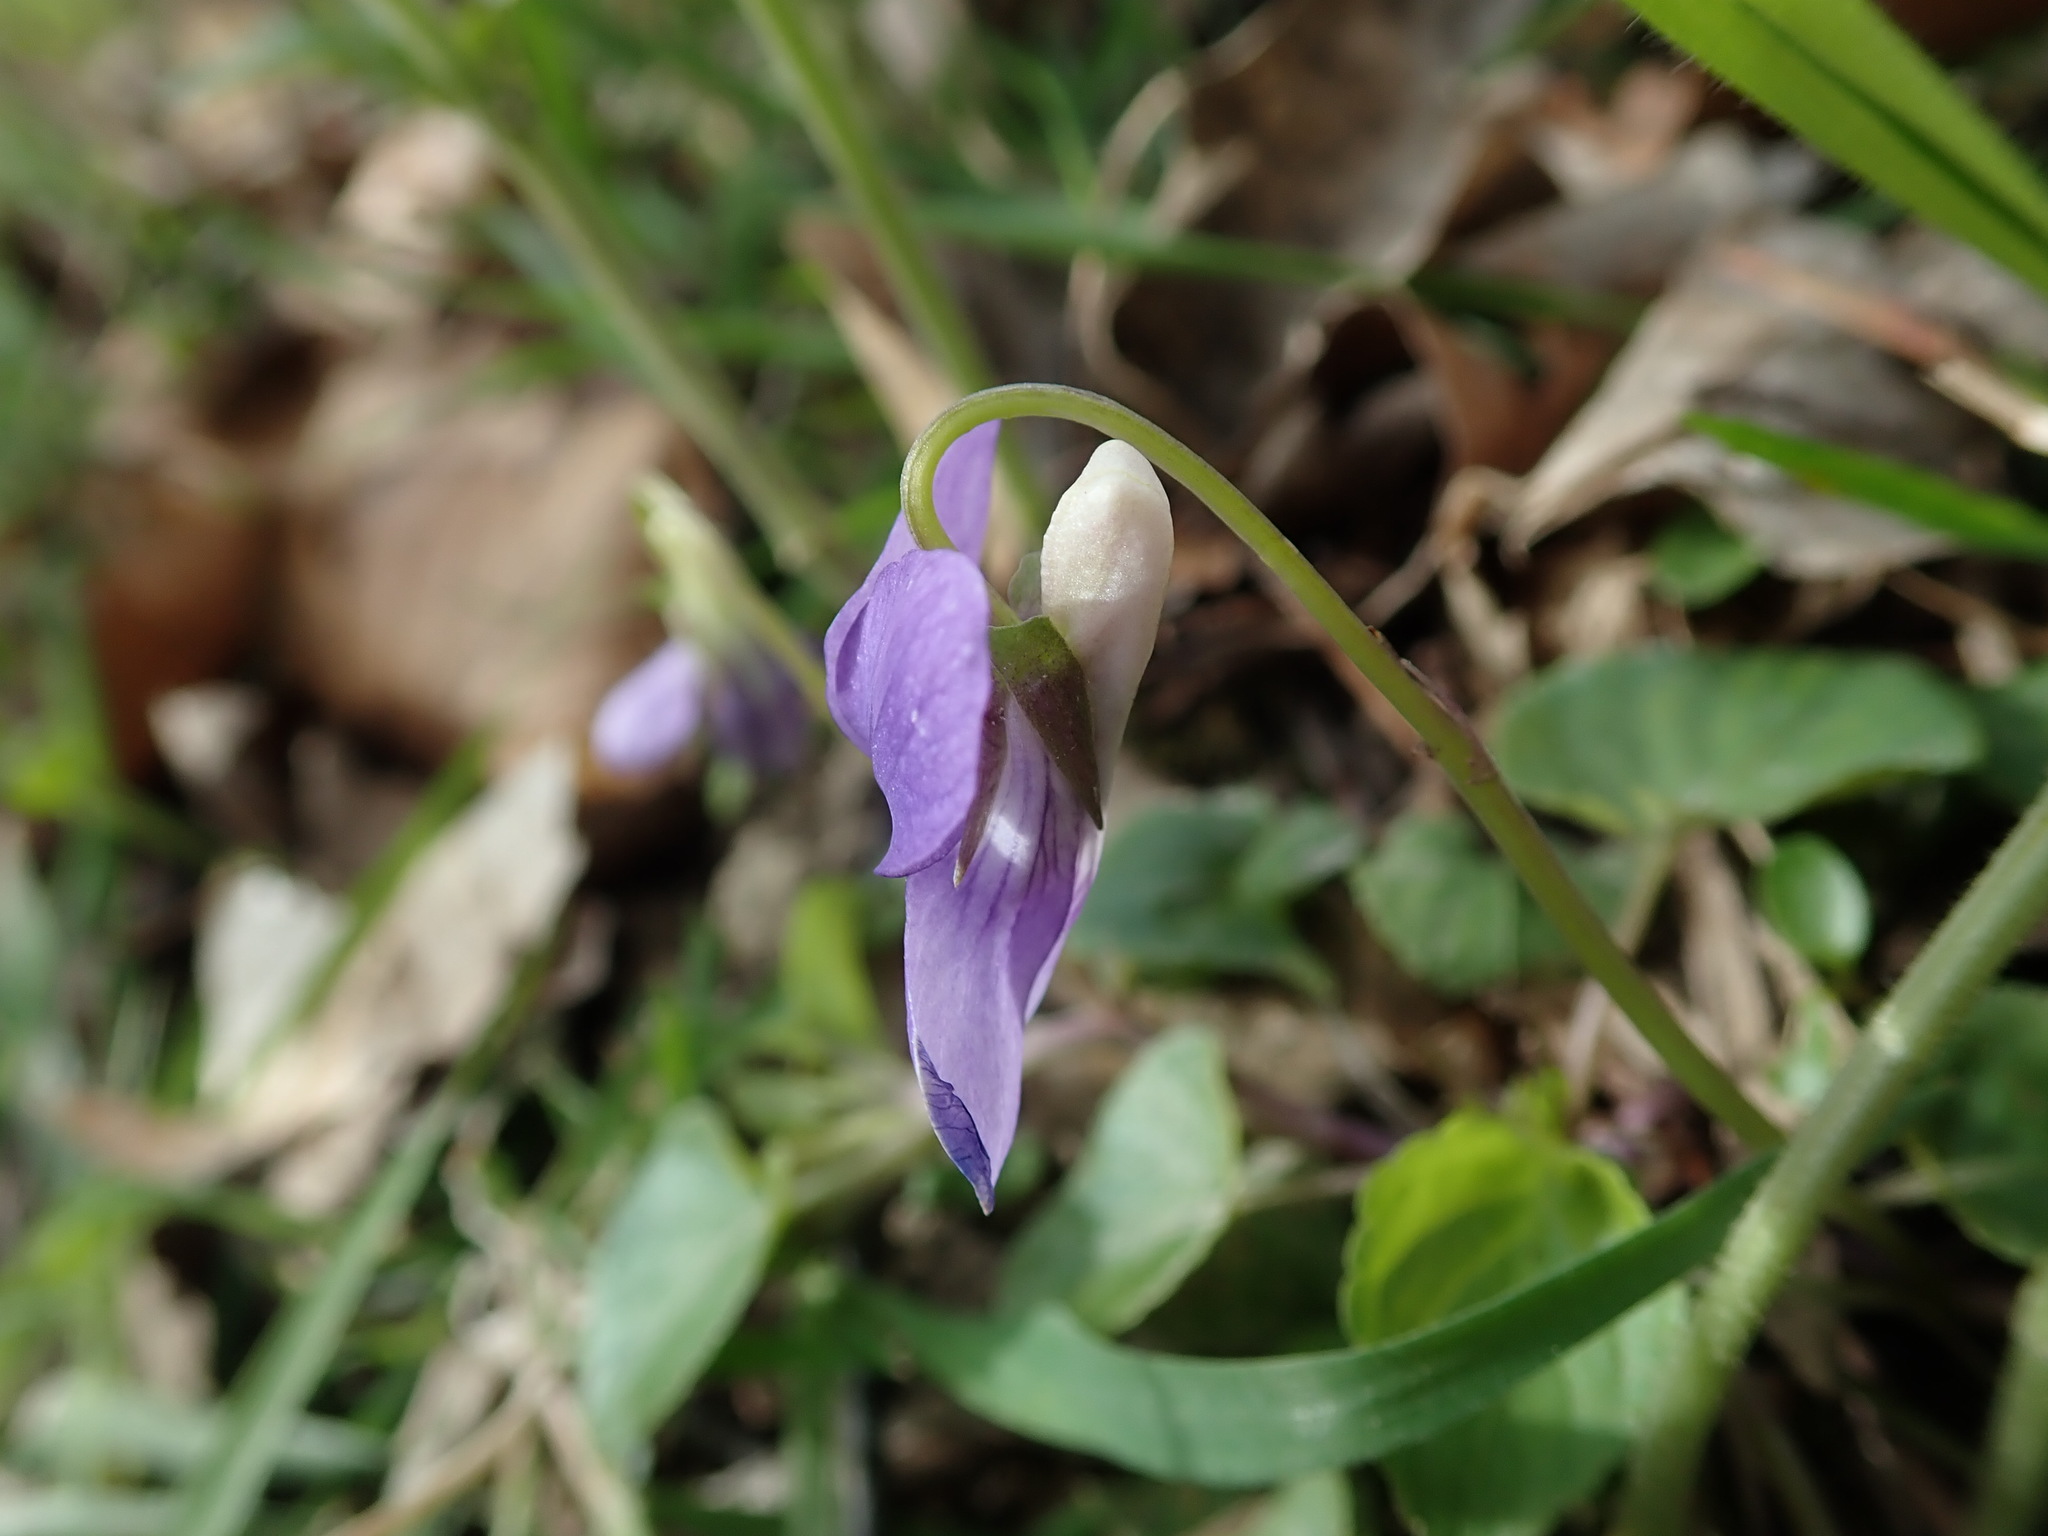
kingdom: Plantae
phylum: Tracheophyta
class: Magnoliopsida
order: Malpighiales
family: Violaceae
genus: Viola
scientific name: Viola riviniana
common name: Common dog-violet
